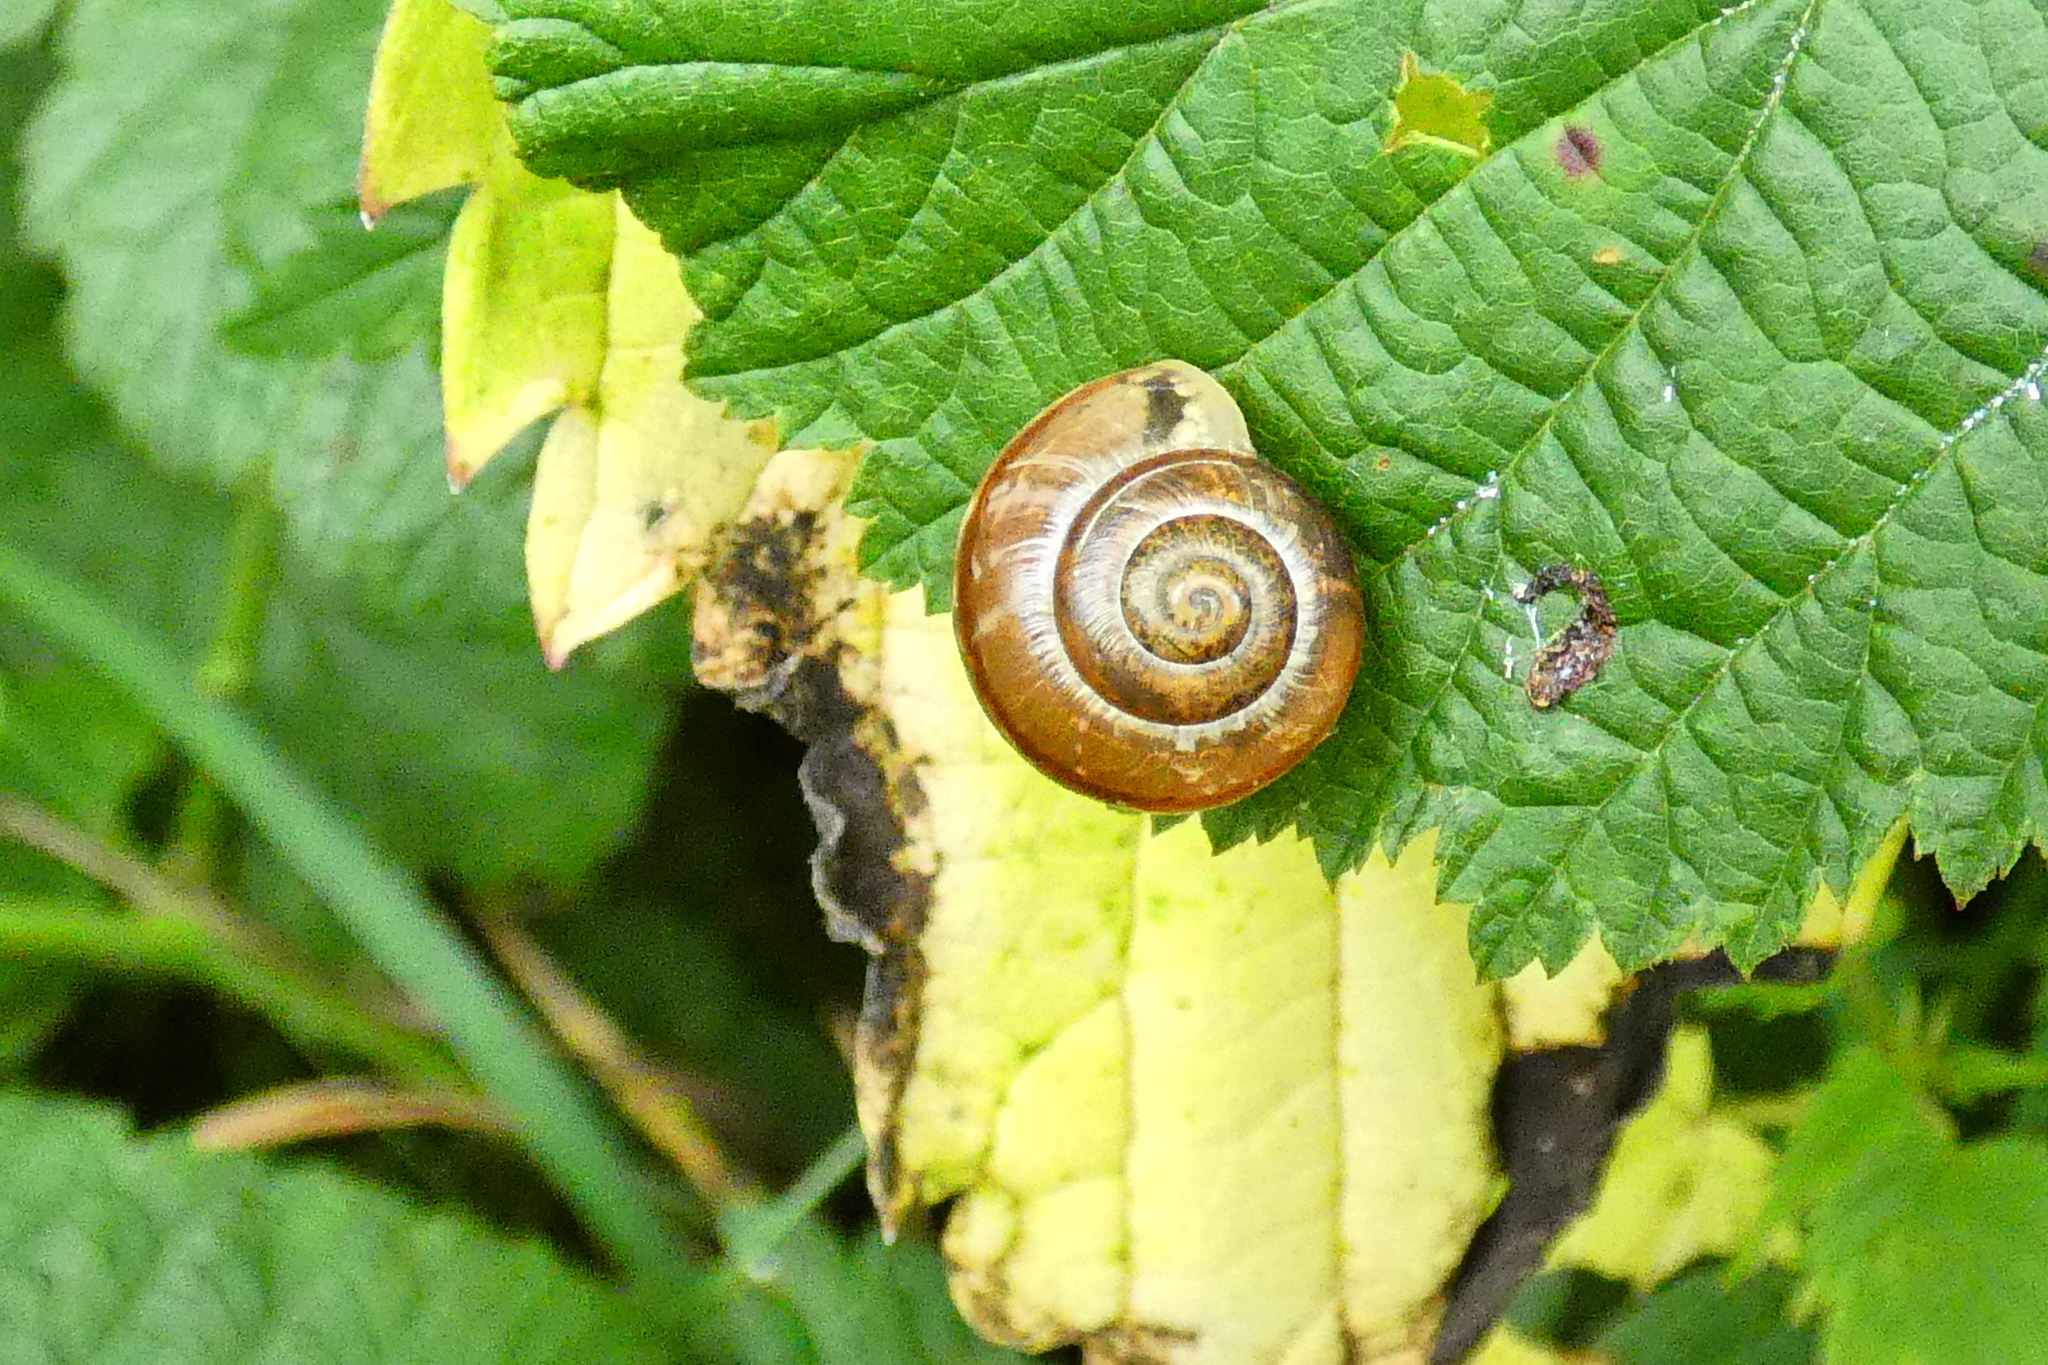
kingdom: Animalia
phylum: Mollusca
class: Gastropoda
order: Stylommatophora
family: Helicidae
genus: Arianta
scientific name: Arianta arbustorum
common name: Copse snail
